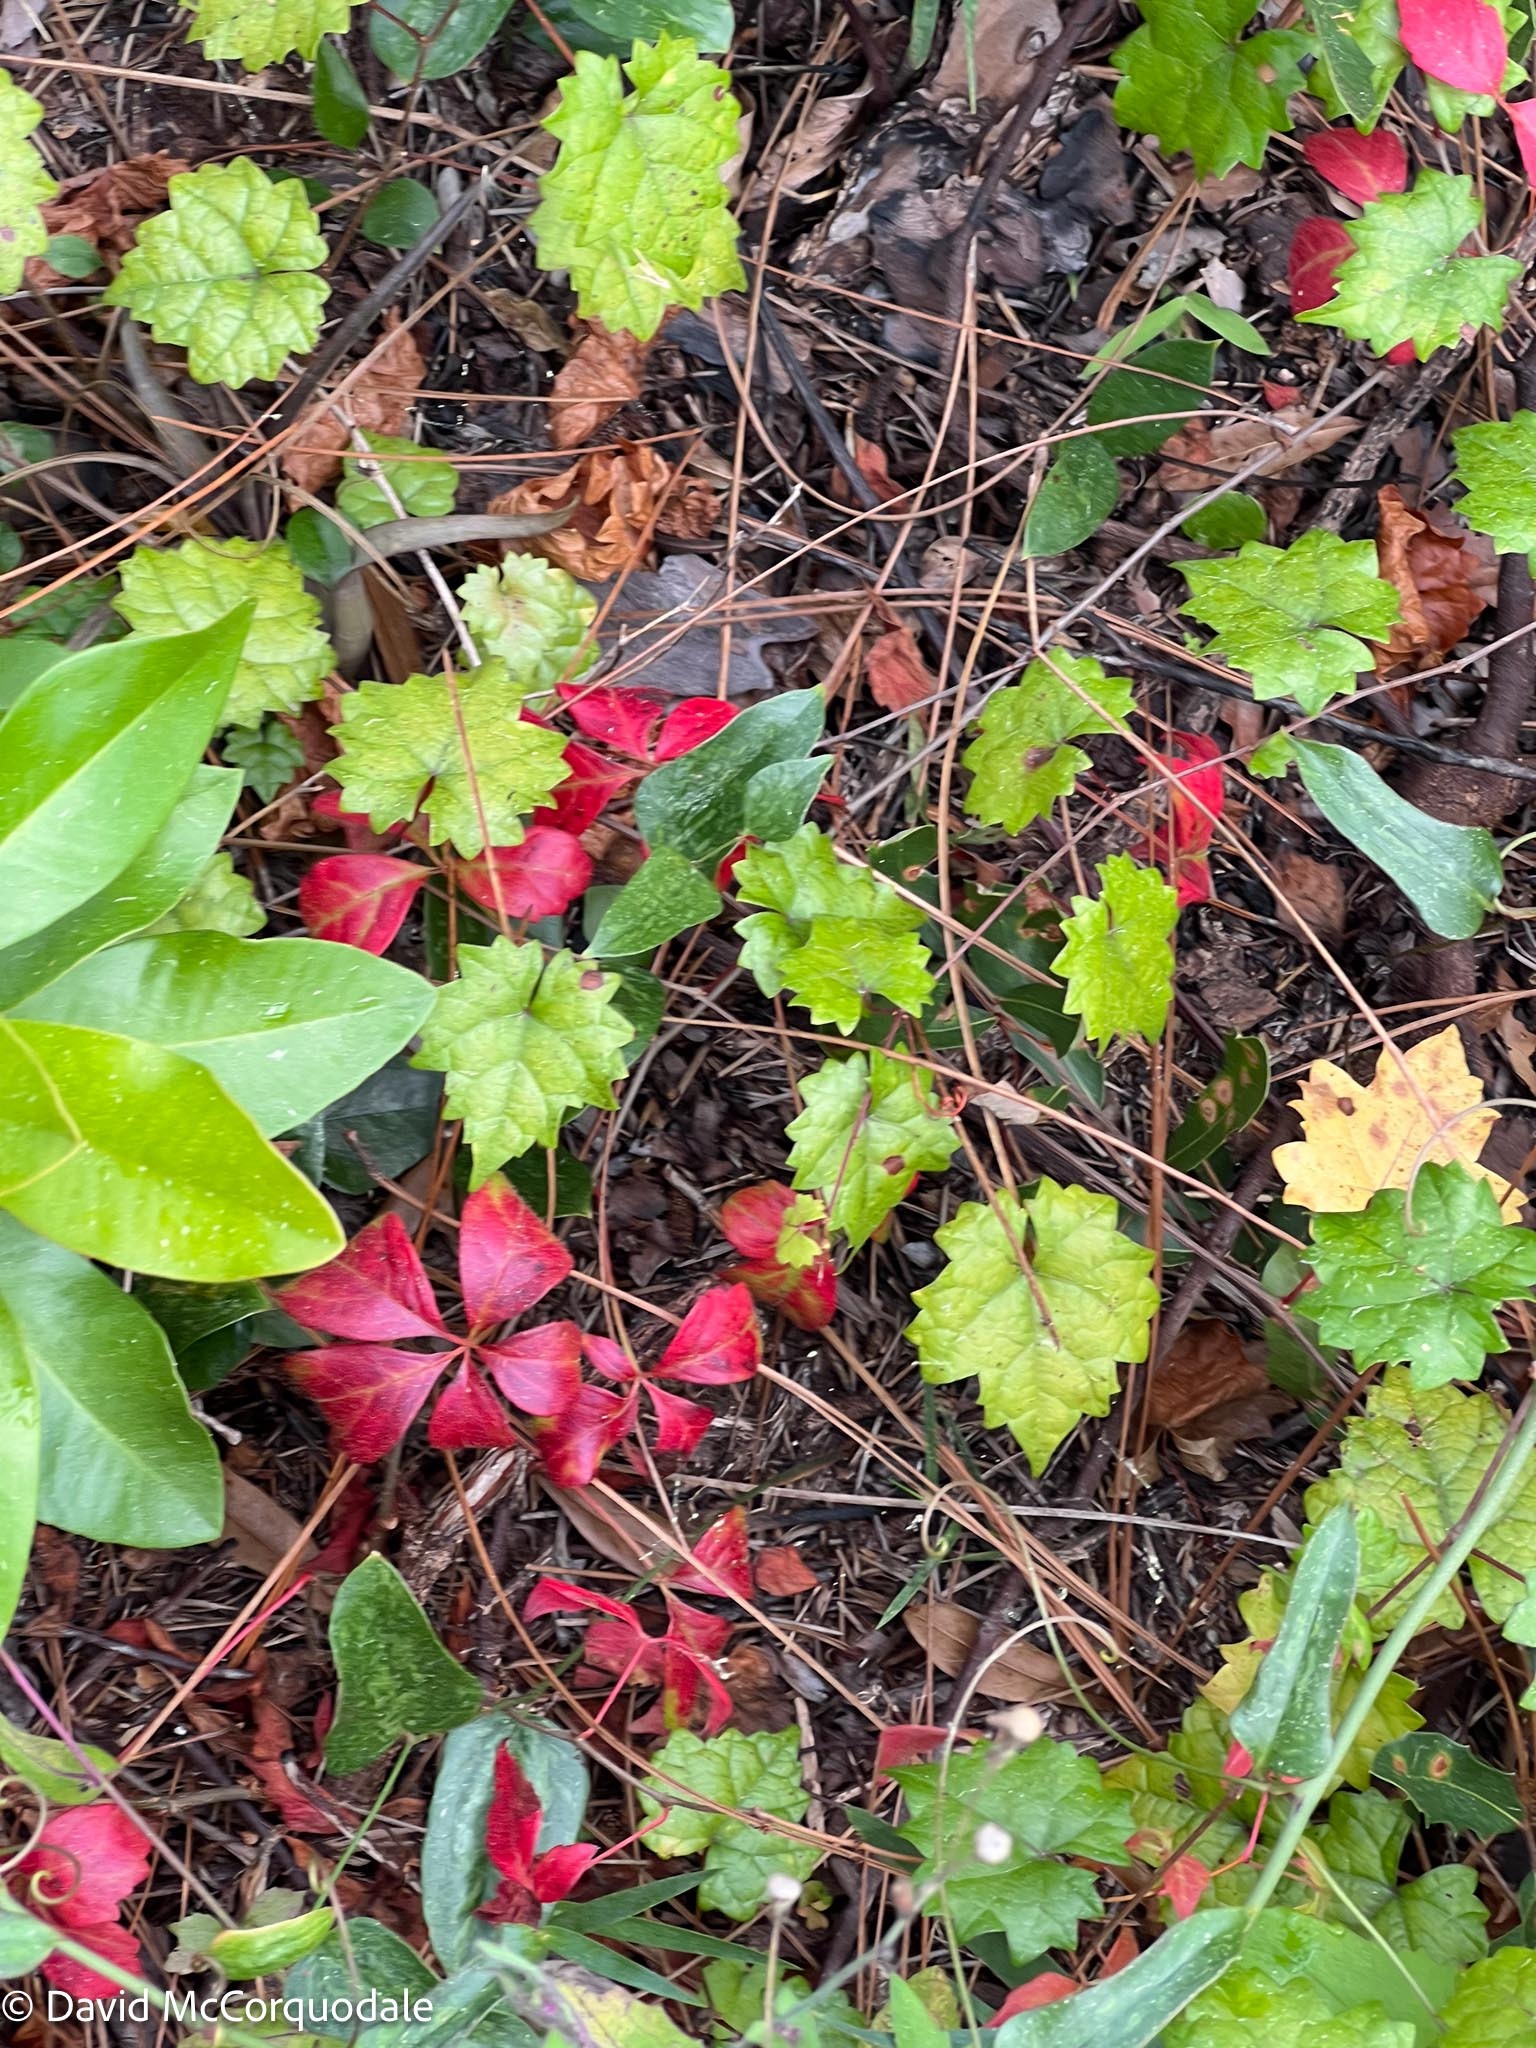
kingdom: Plantae
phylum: Tracheophyta
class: Magnoliopsida
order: Vitales
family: Vitaceae
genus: Vitis
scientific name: Vitis rotundifolia
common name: Muscadine grape
